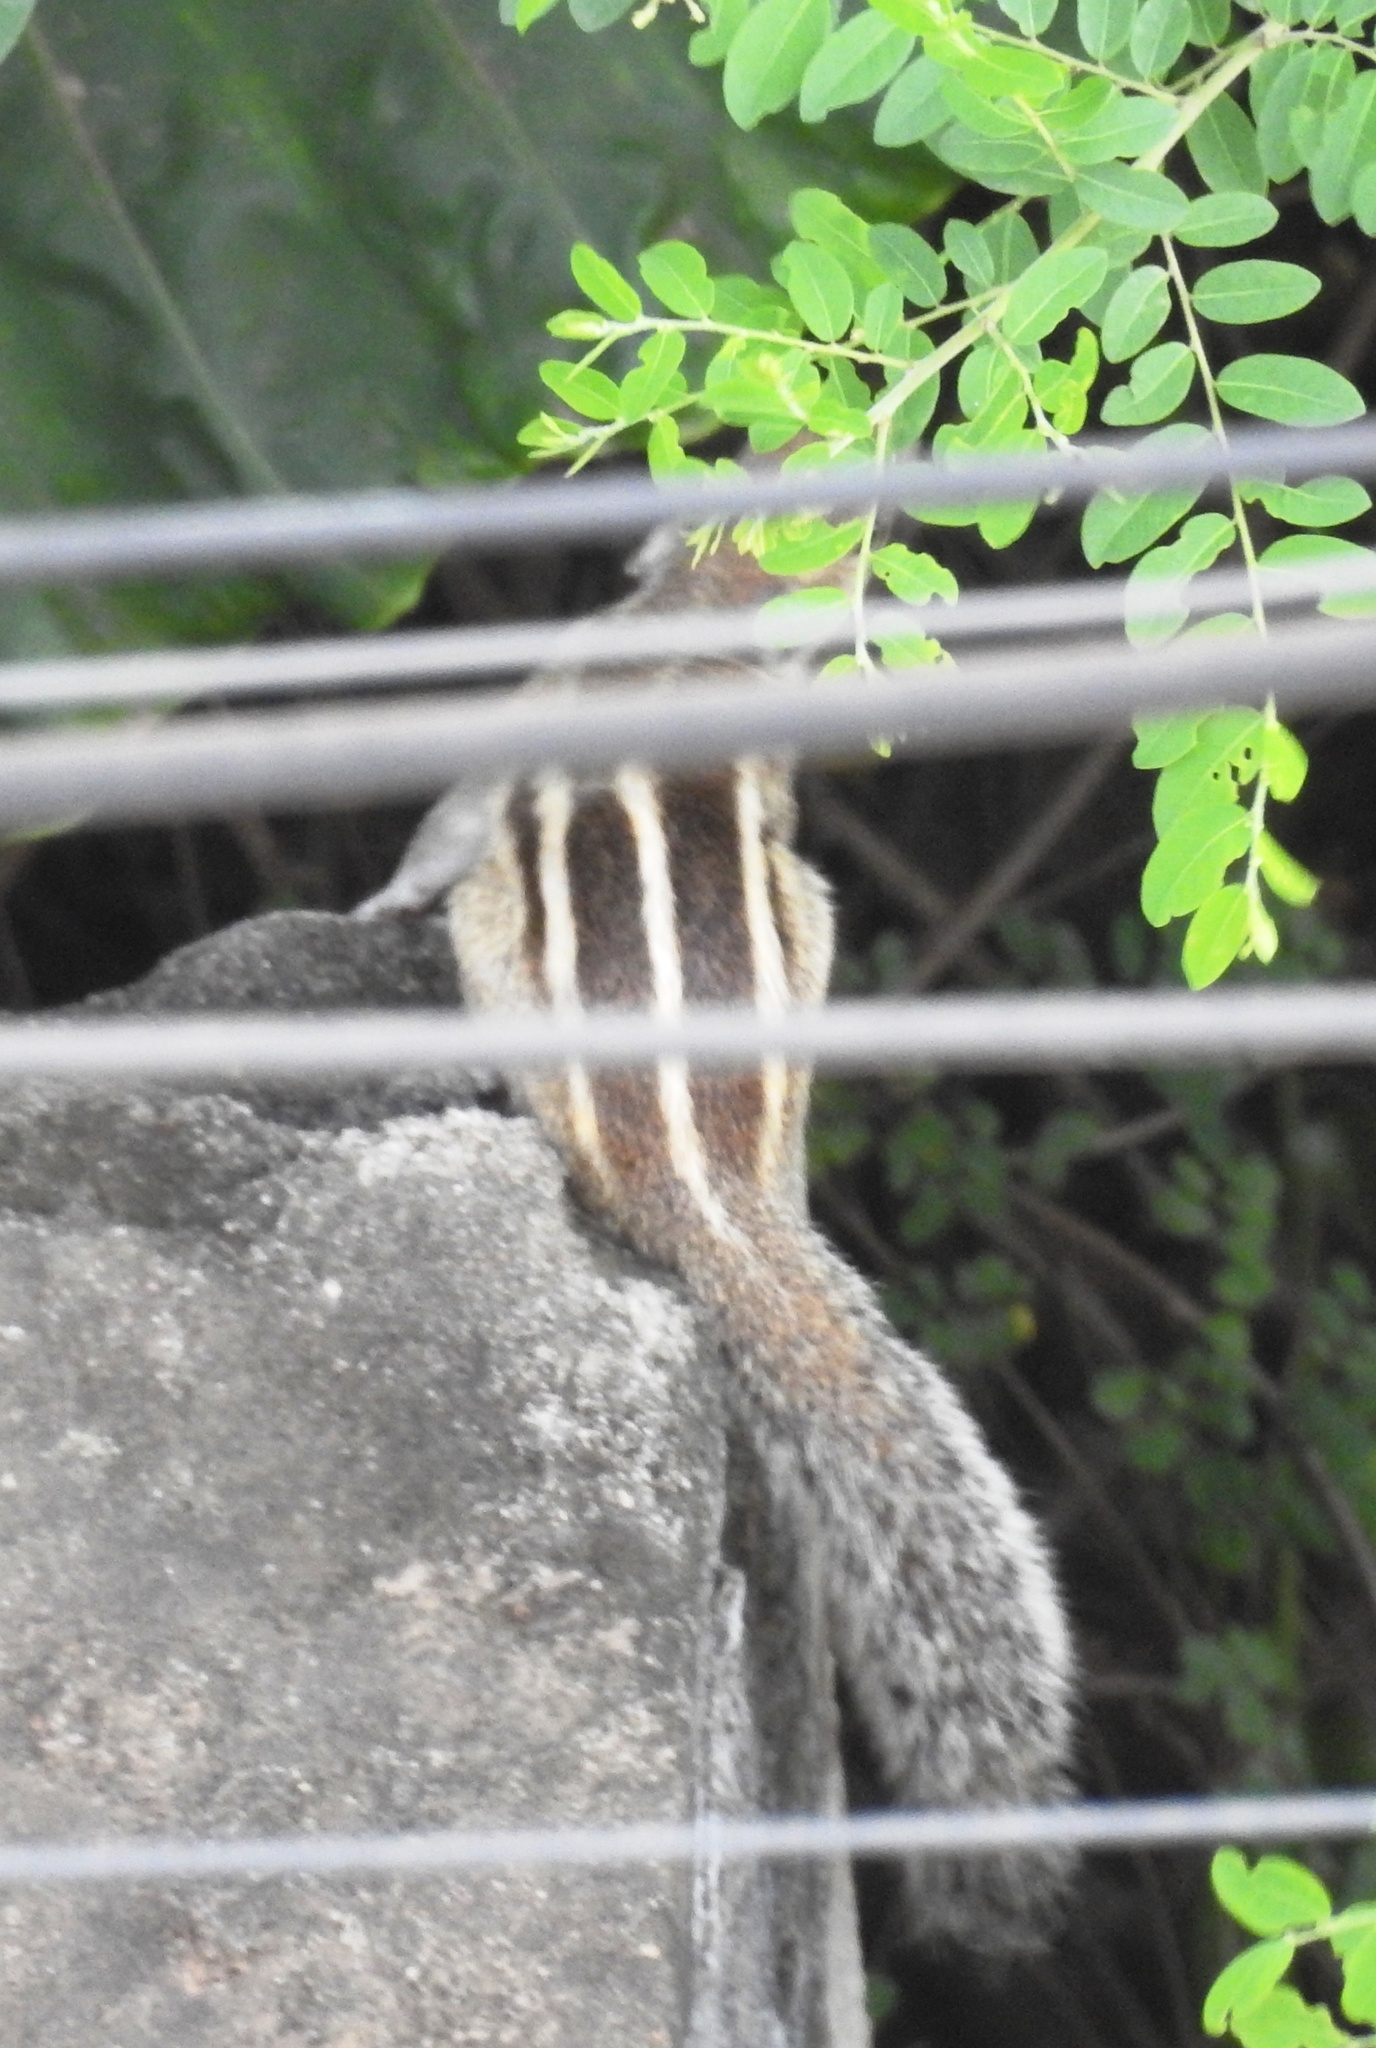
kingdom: Animalia
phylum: Chordata
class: Mammalia
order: Rodentia
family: Sciuridae
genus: Funambulus
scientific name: Funambulus palmarum
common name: Indian palm squirrel
